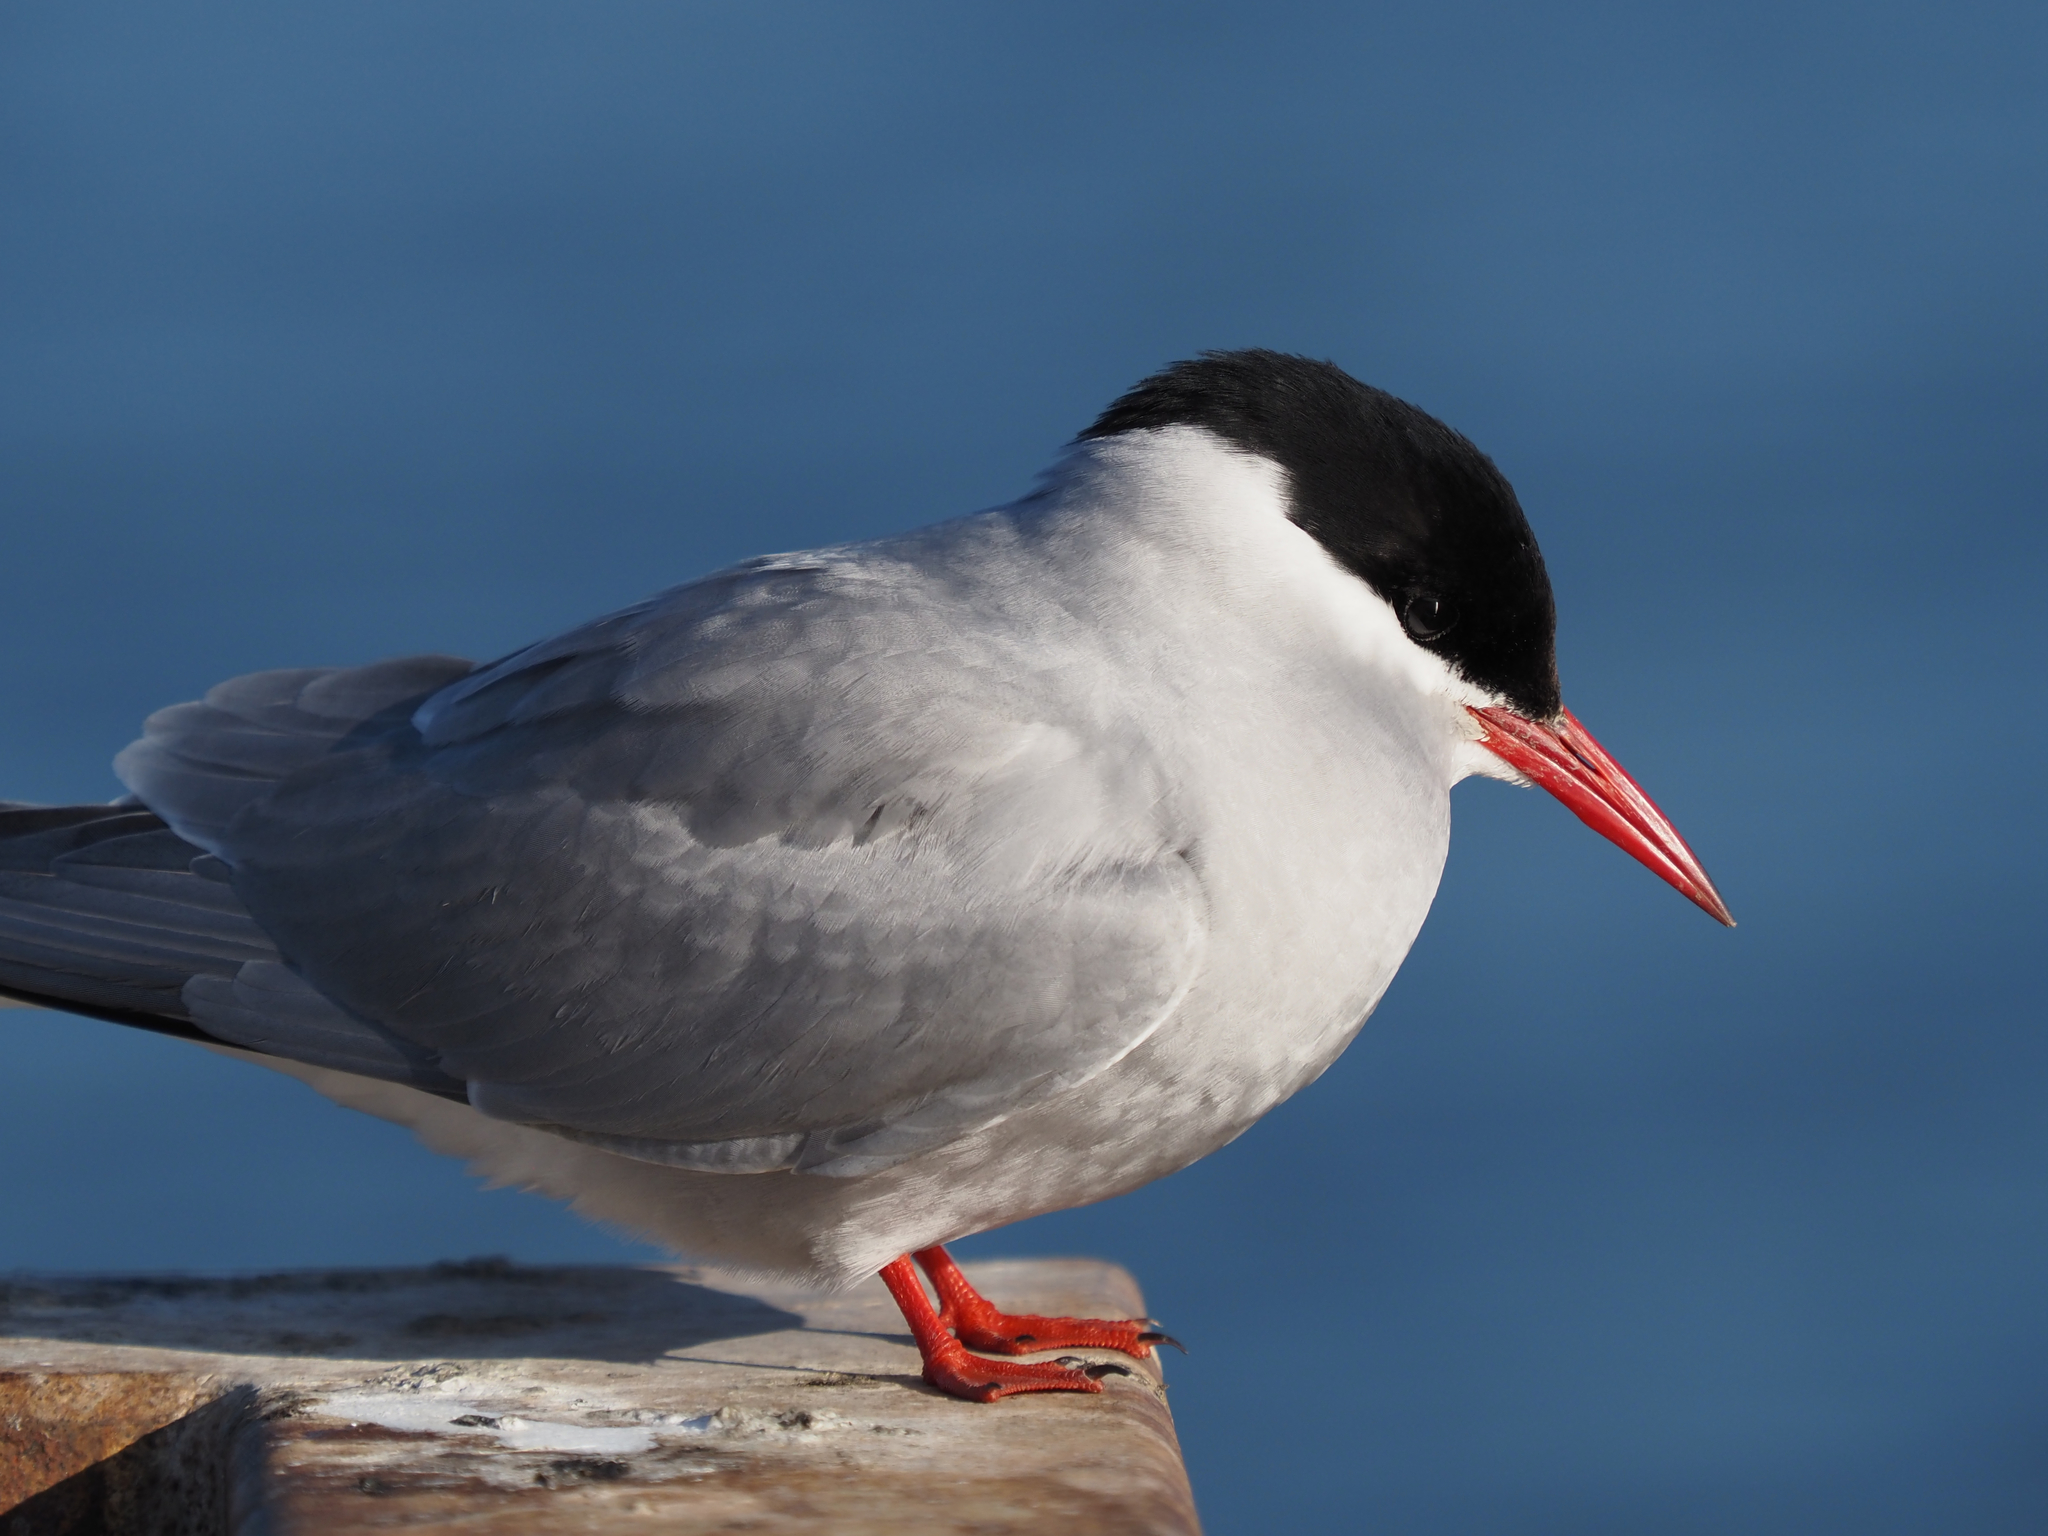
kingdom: Animalia
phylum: Chordata
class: Aves
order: Charadriiformes
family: Laridae
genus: Sterna
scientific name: Sterna paradisaea
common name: Arctic tern
